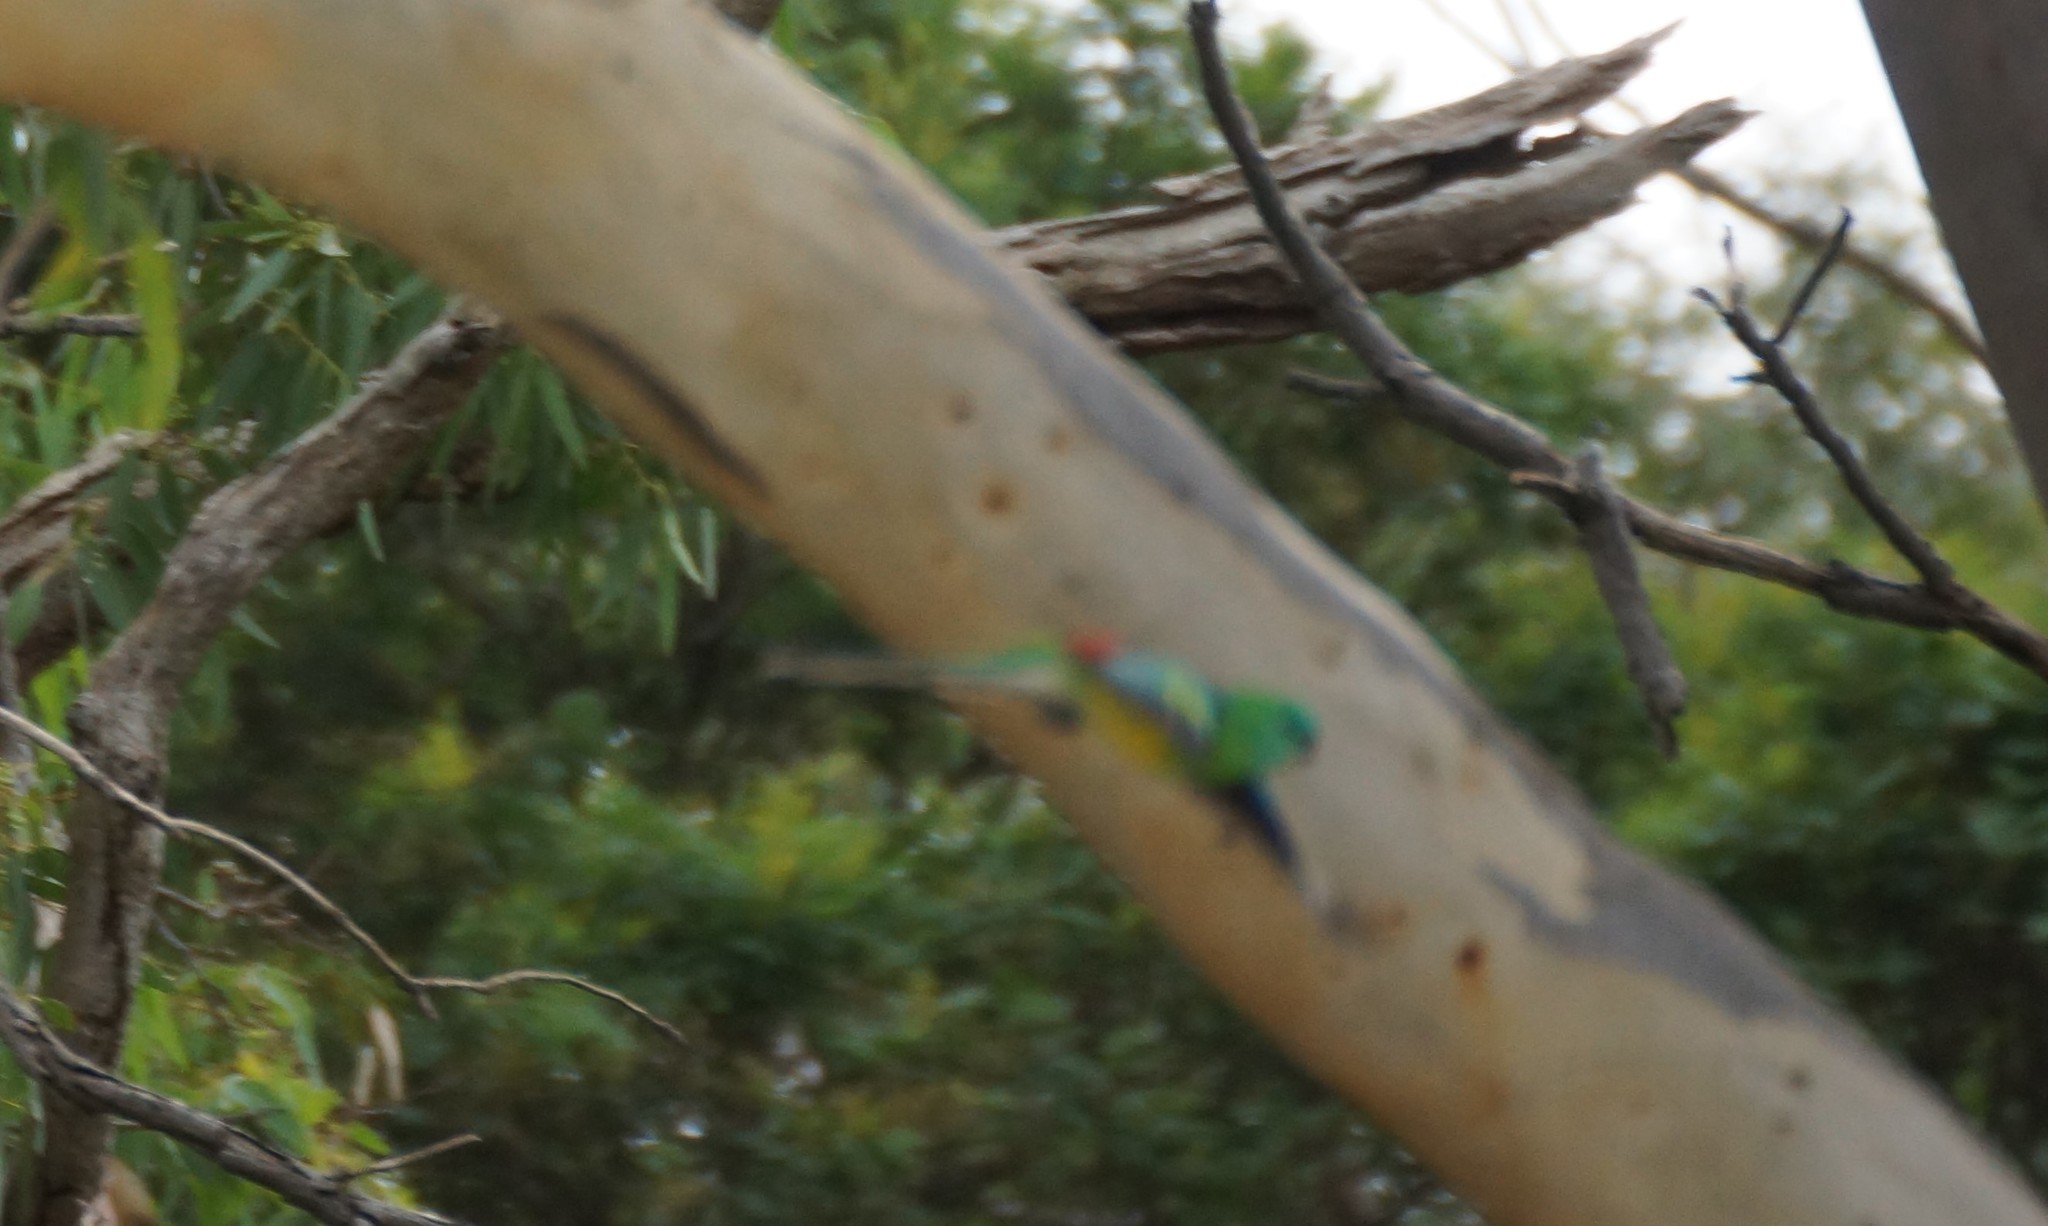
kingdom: Animalia
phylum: Chordata
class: Aves
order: Psittaciformes
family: Psittacidae
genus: Psephotus
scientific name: Psephotus haematonotus
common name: Red-rumped parrot
